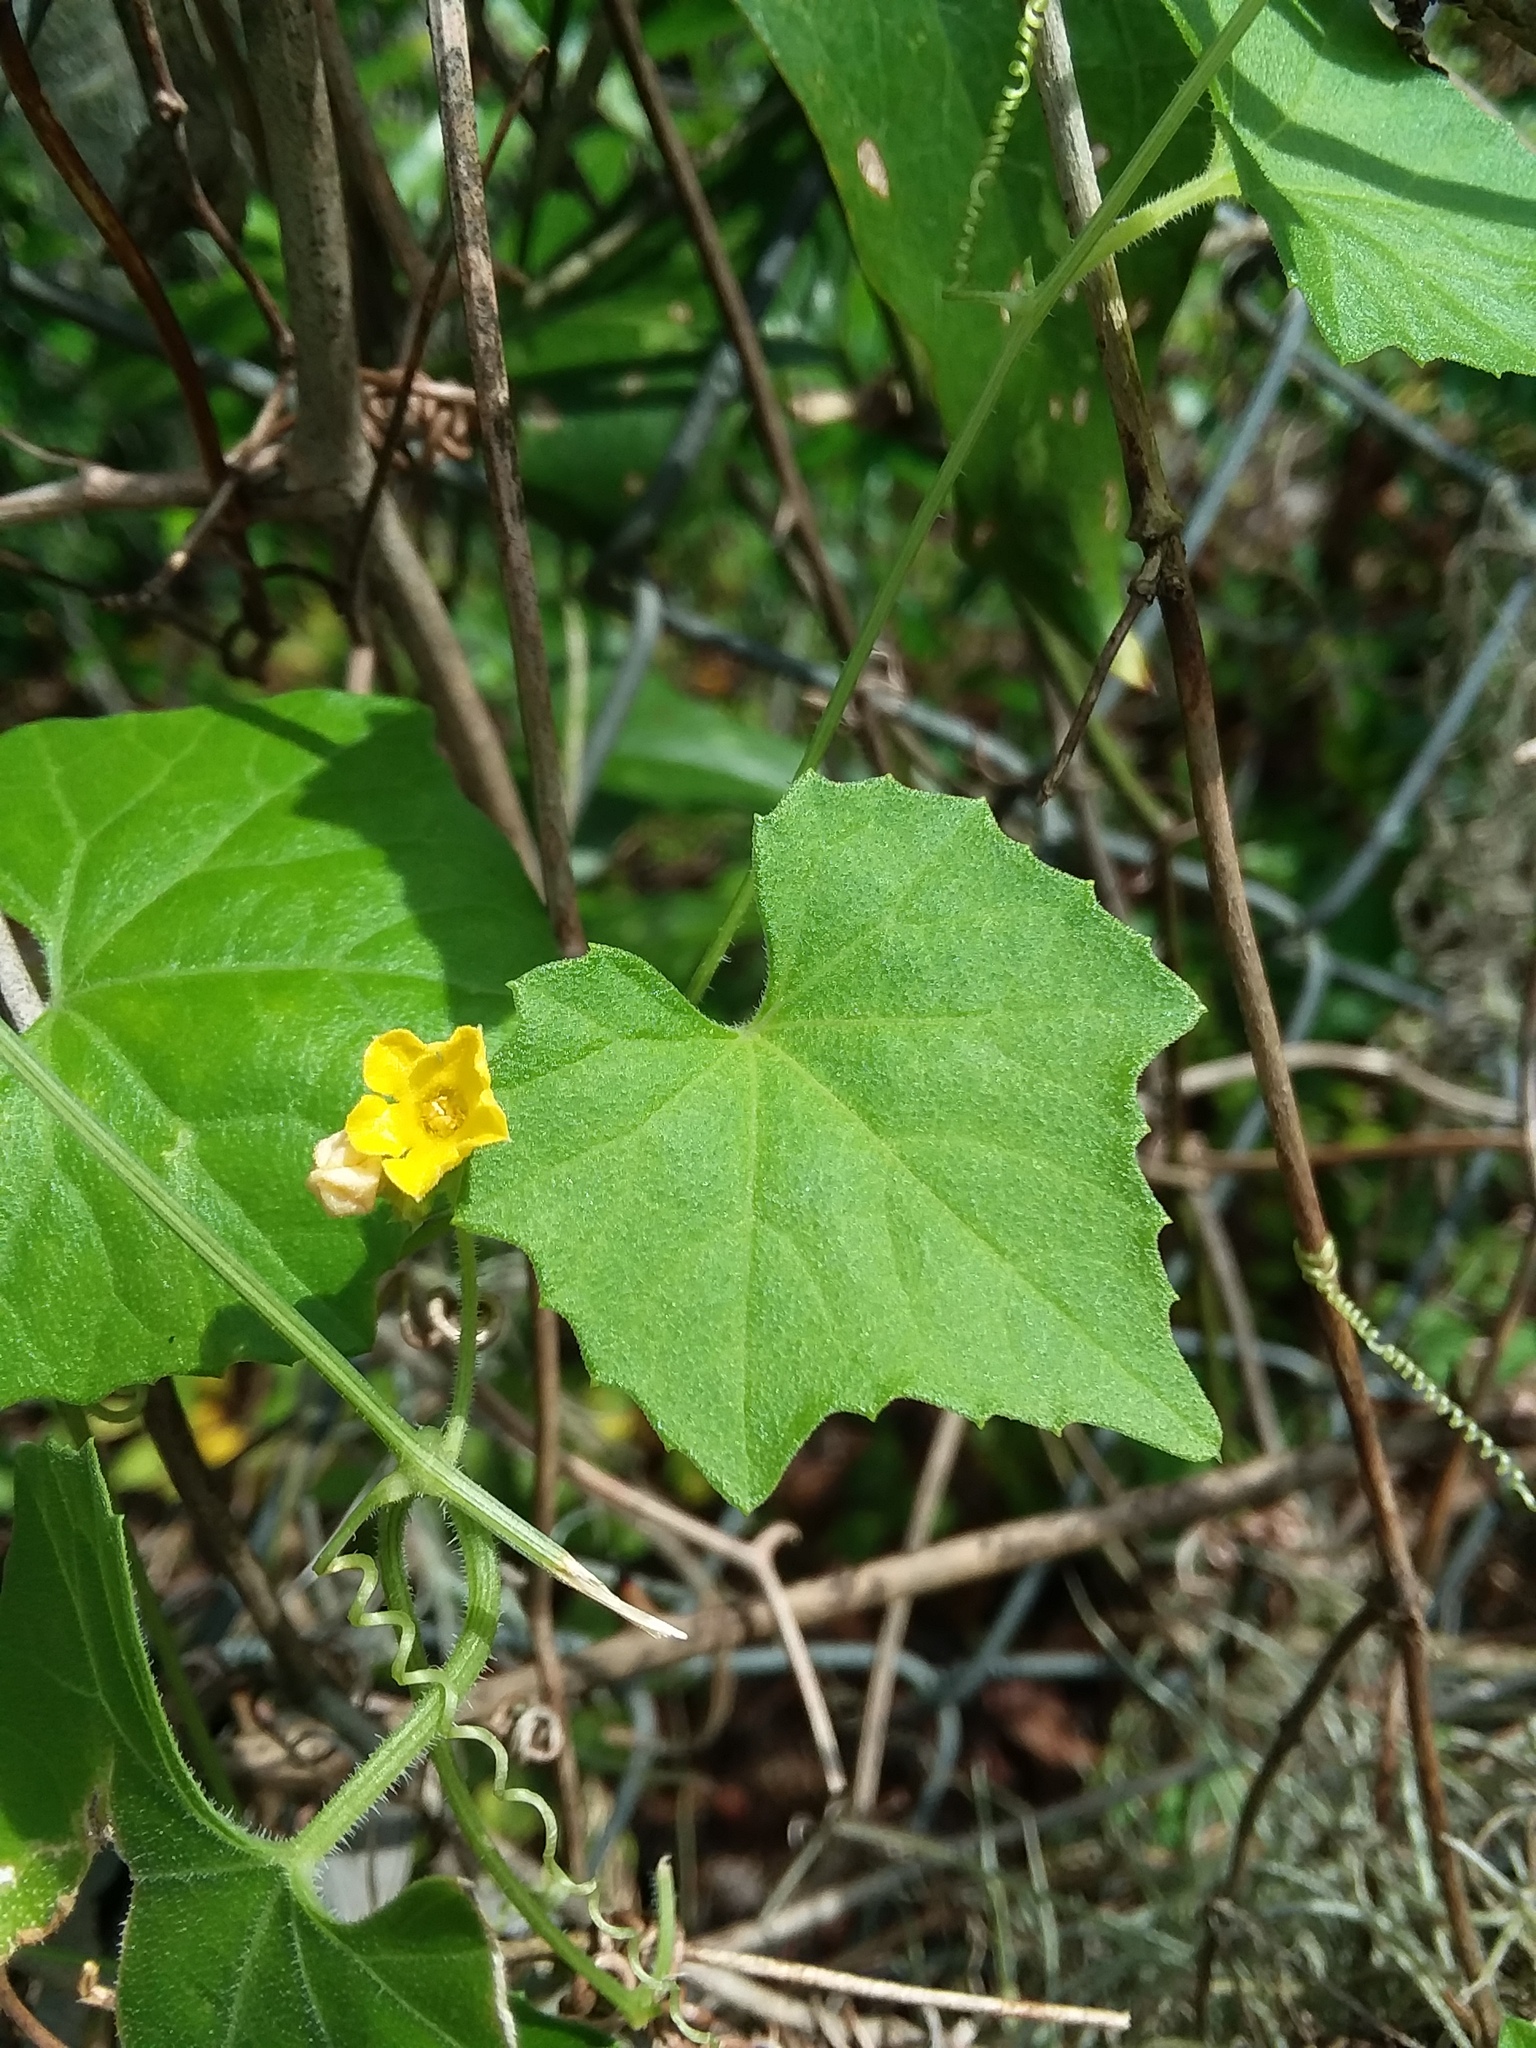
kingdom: Plantae
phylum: Tracheophyta
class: Magnoliopsida
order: Cucurbitales
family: Cucurbitaceae
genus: Melothria
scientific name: Melothria pendula
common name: Creeping-cucumber
